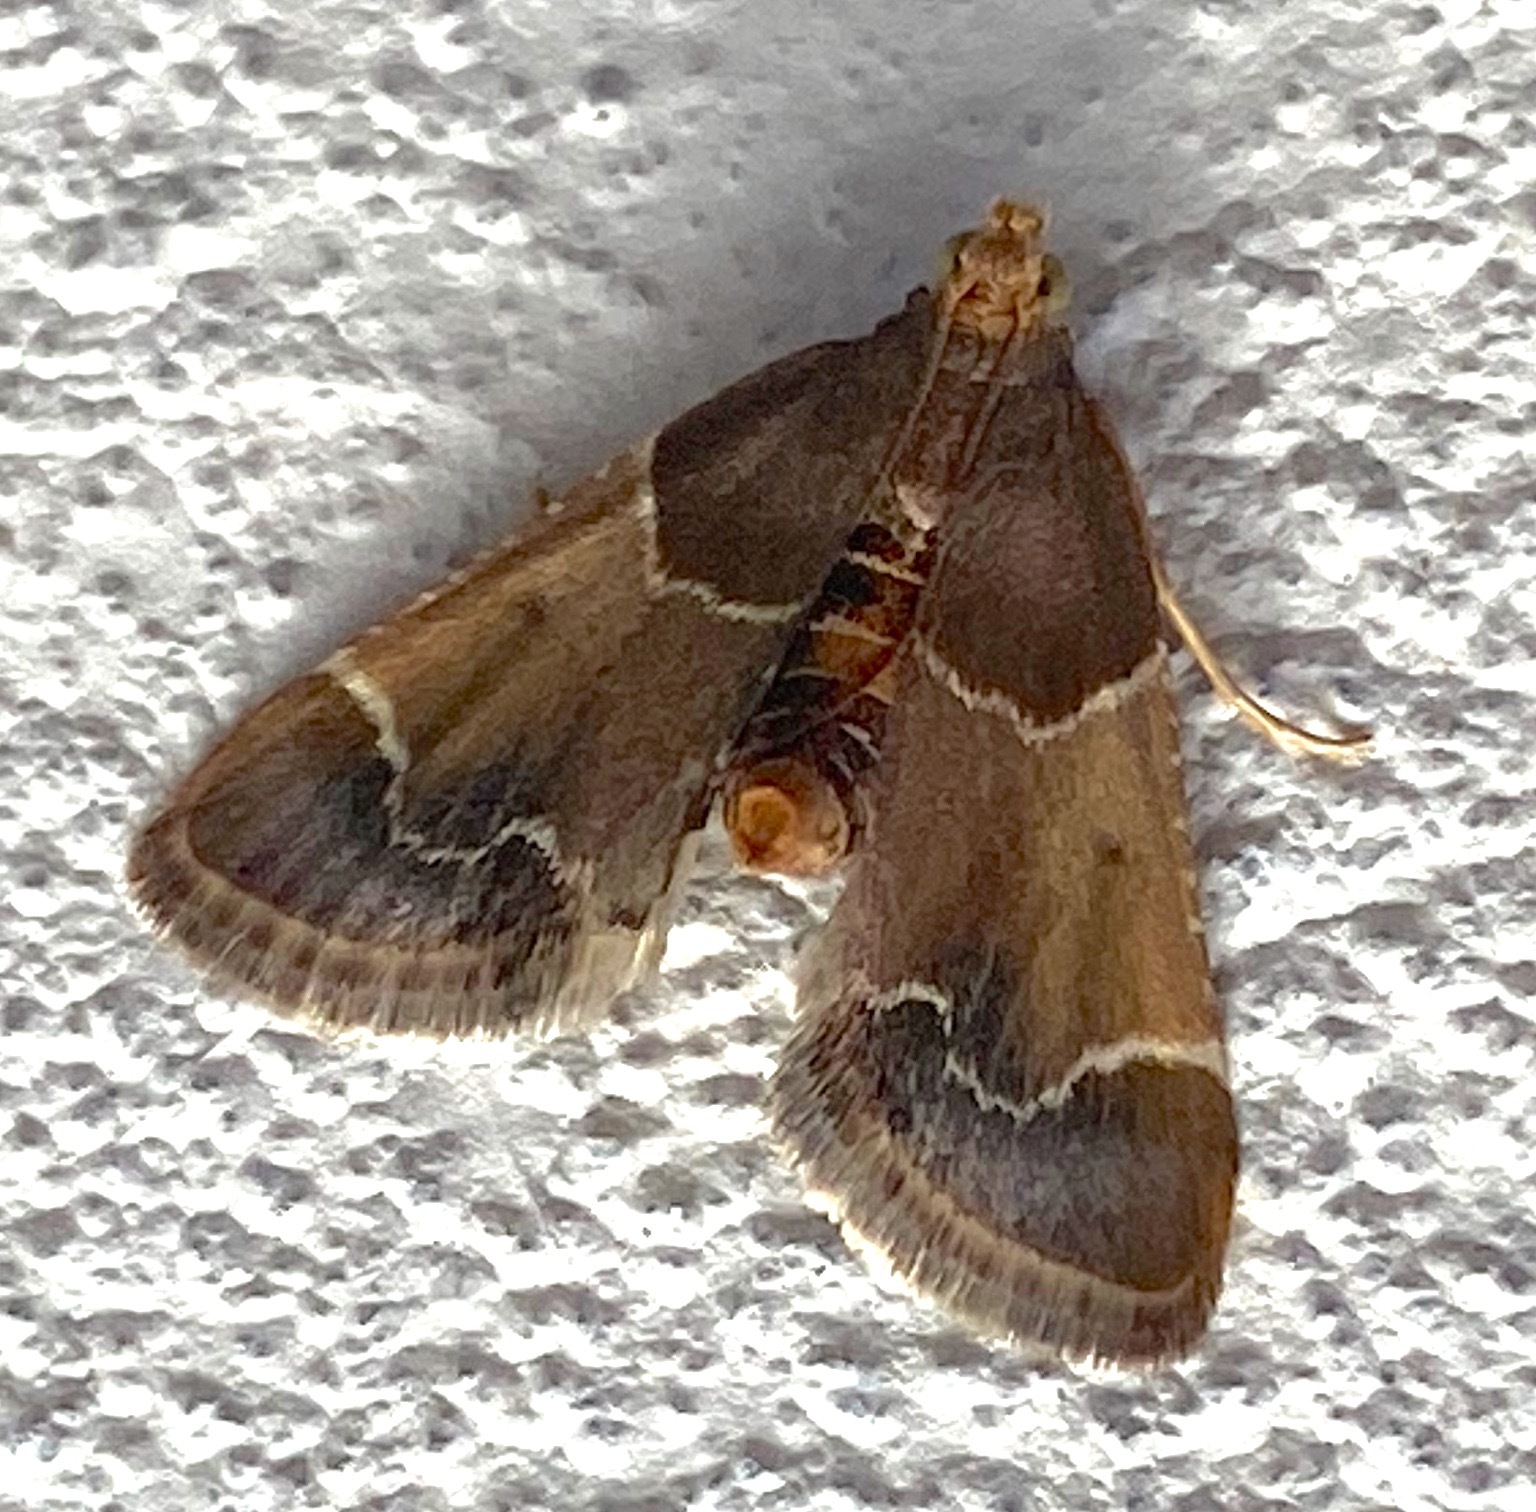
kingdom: Animalia
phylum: Arthropoda
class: Insecta
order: Lepidoptera
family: Pyralidae
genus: Pyralis
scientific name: Pyralis farinalis
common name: Meal moth
